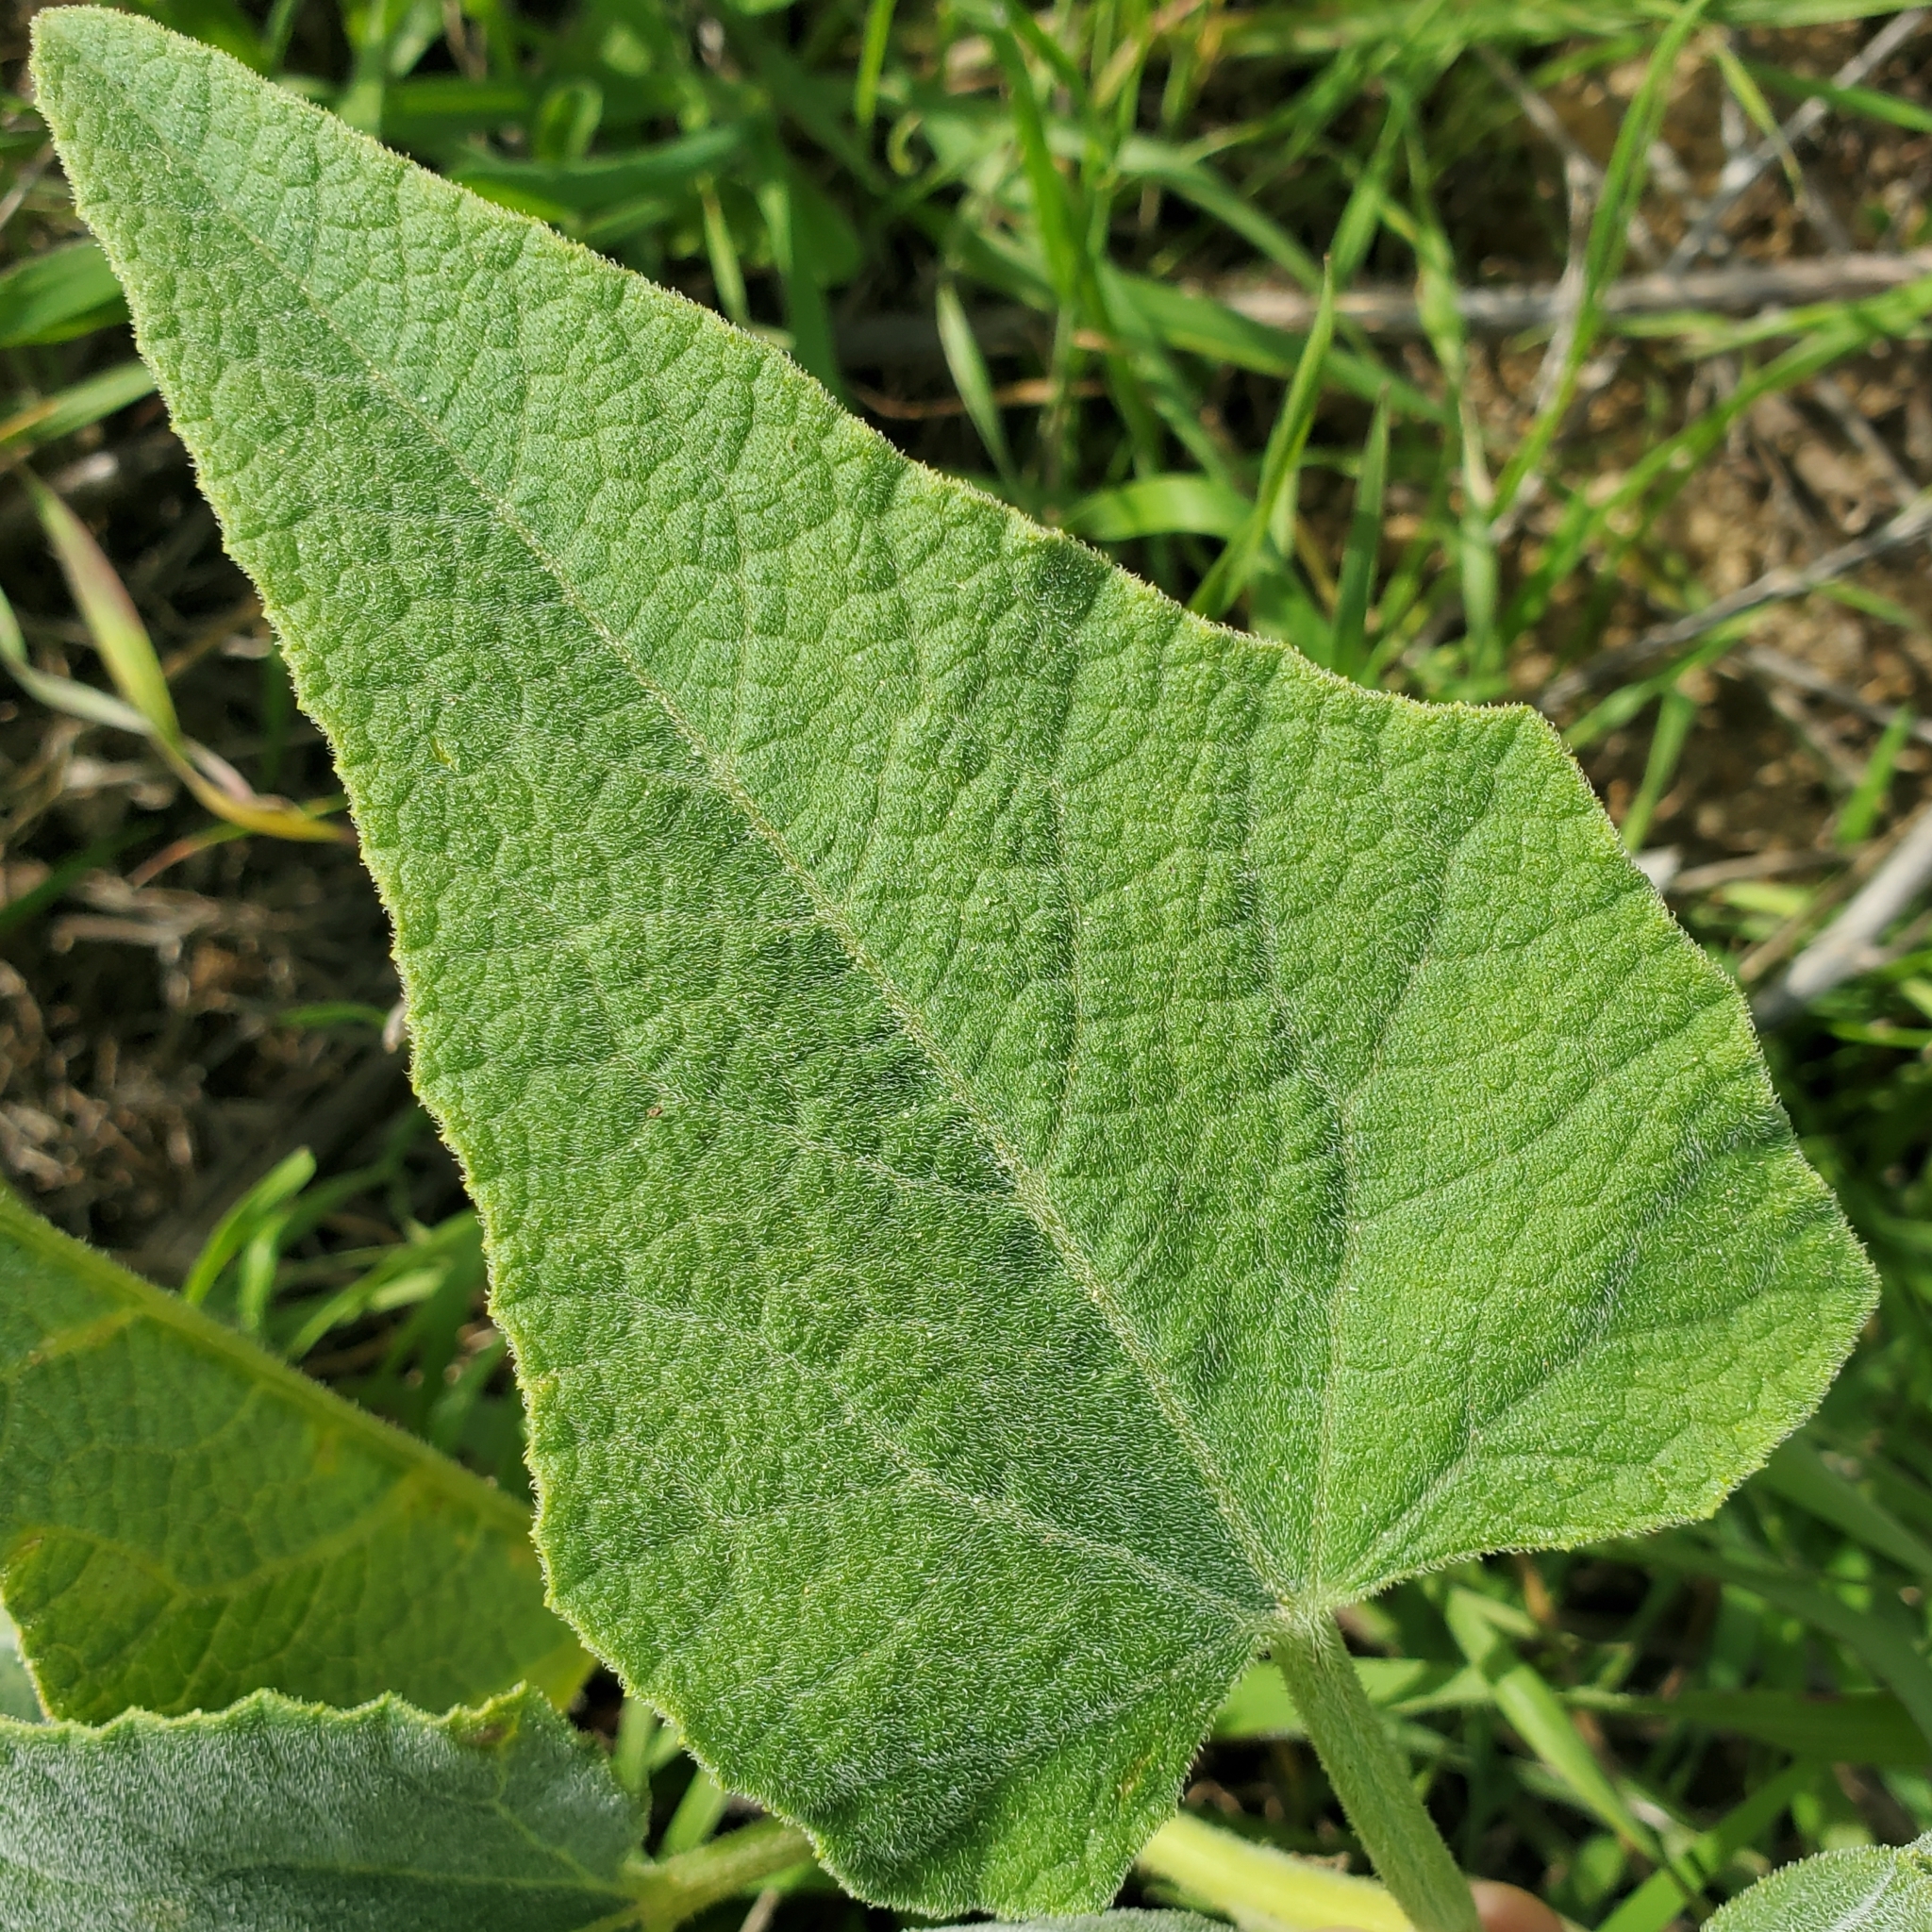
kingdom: Plantae
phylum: Tracheophyta
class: Magnoliopsida
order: Cucurbitales
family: Cucurbitaceae
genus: Cucurbita
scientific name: Cucurbita foetidissima
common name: Buffalo gourd
